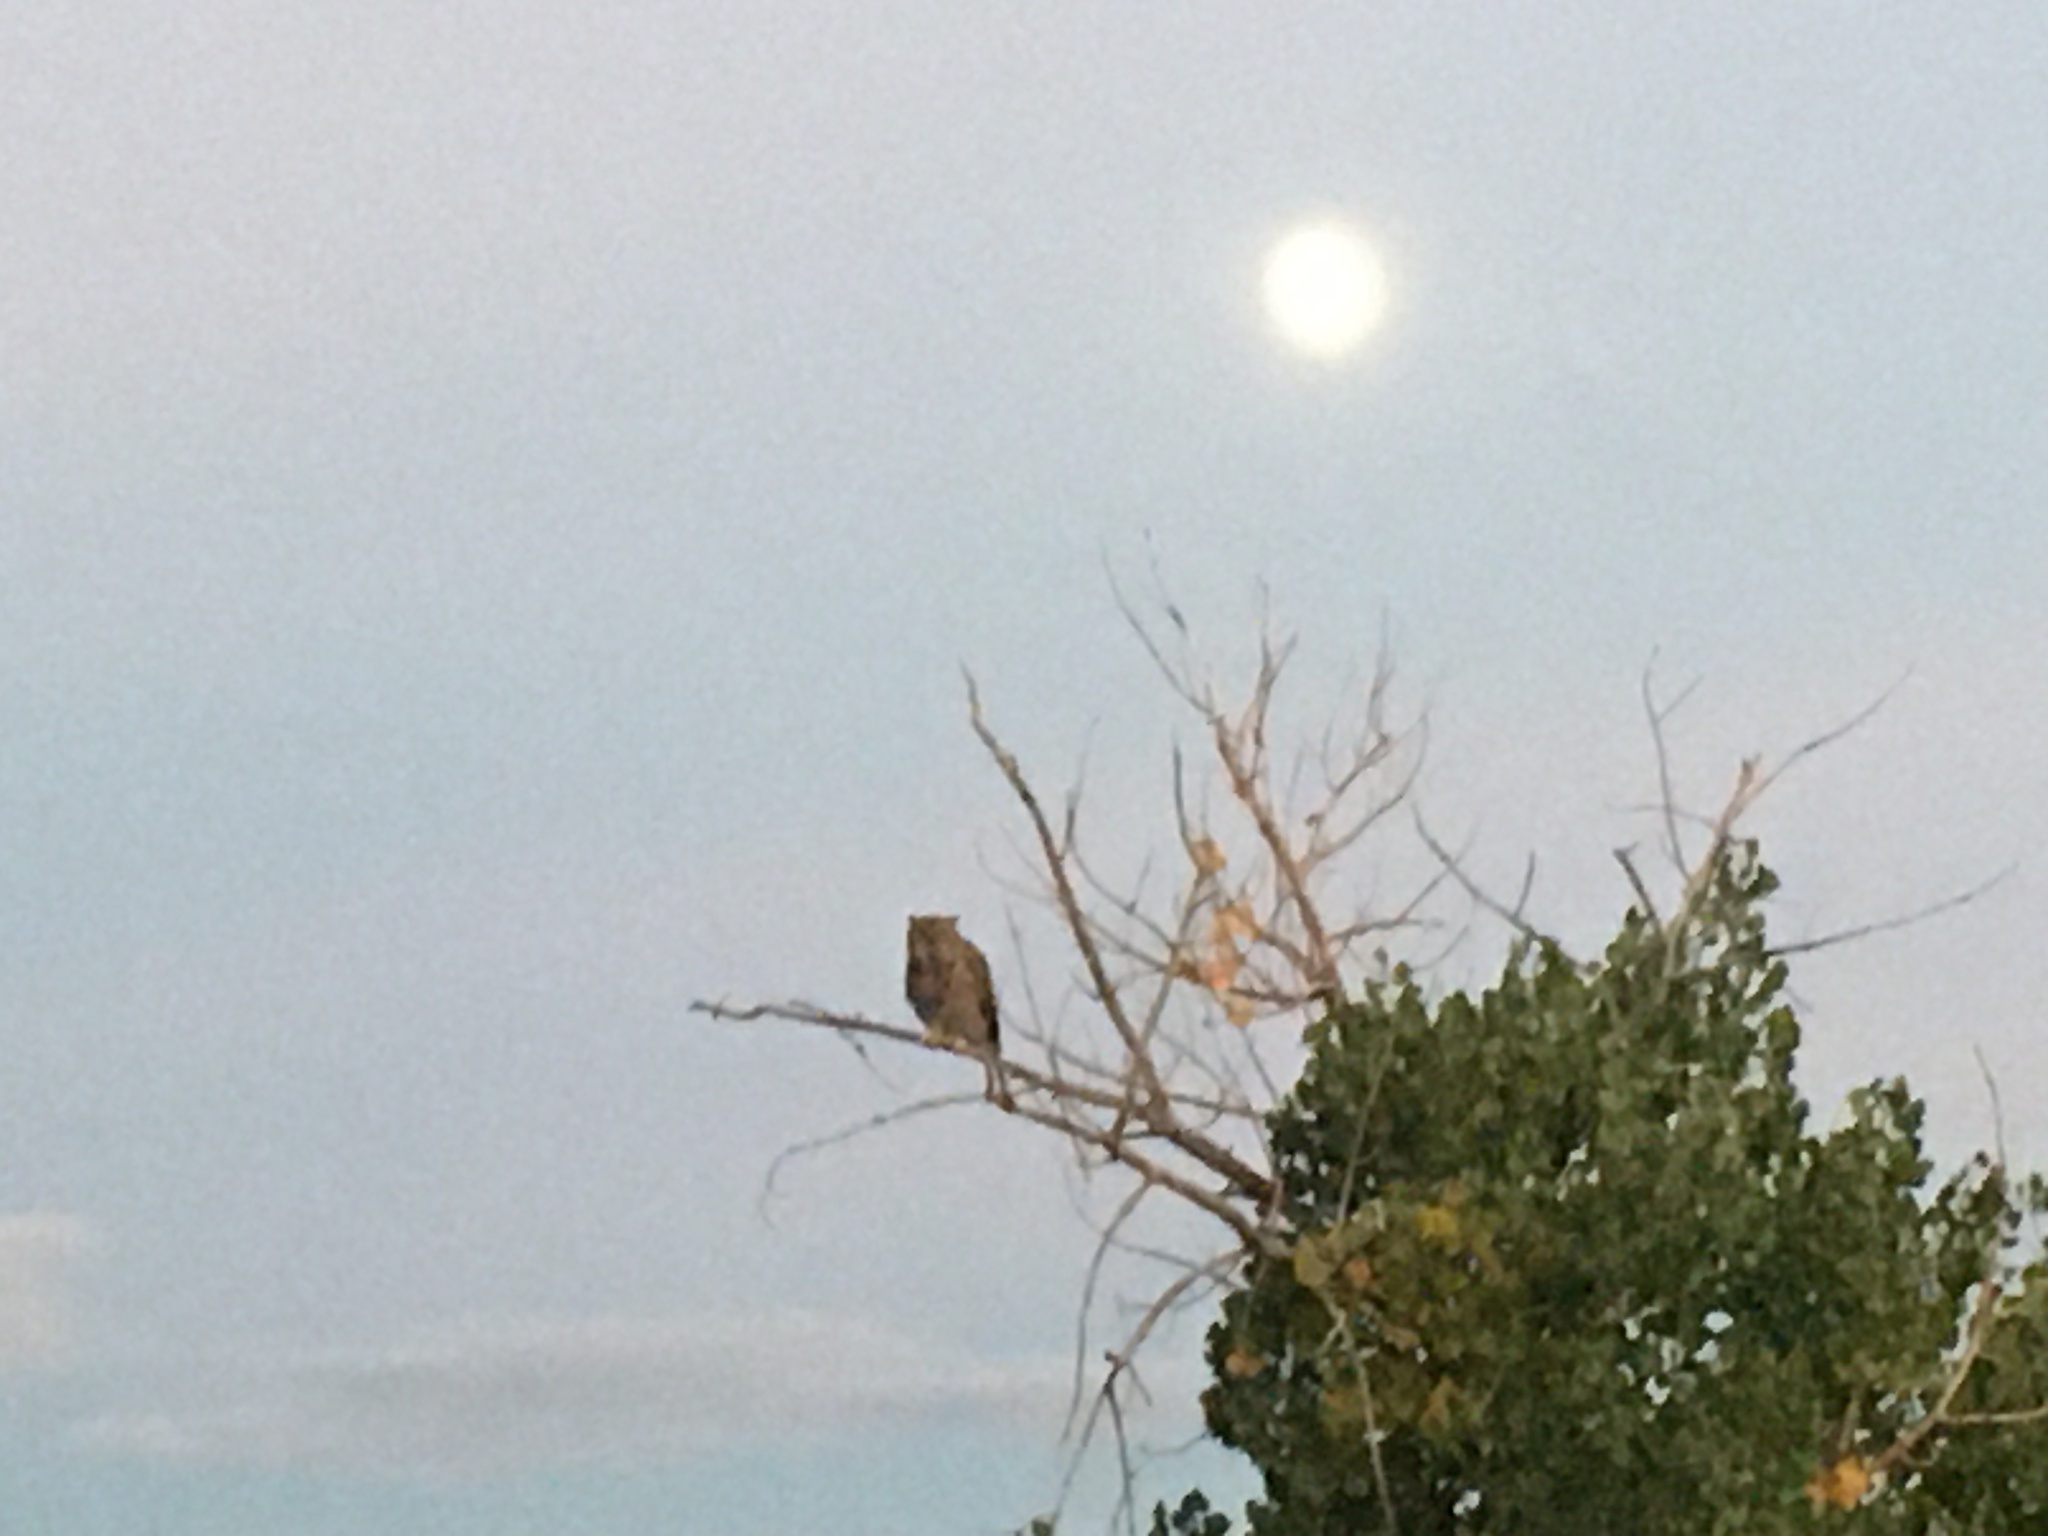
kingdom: Animalia
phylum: Chordata
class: Aves
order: Strigiformes
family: Strigidae
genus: Bubo
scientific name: Bubo virginianus
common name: Great horned owl
